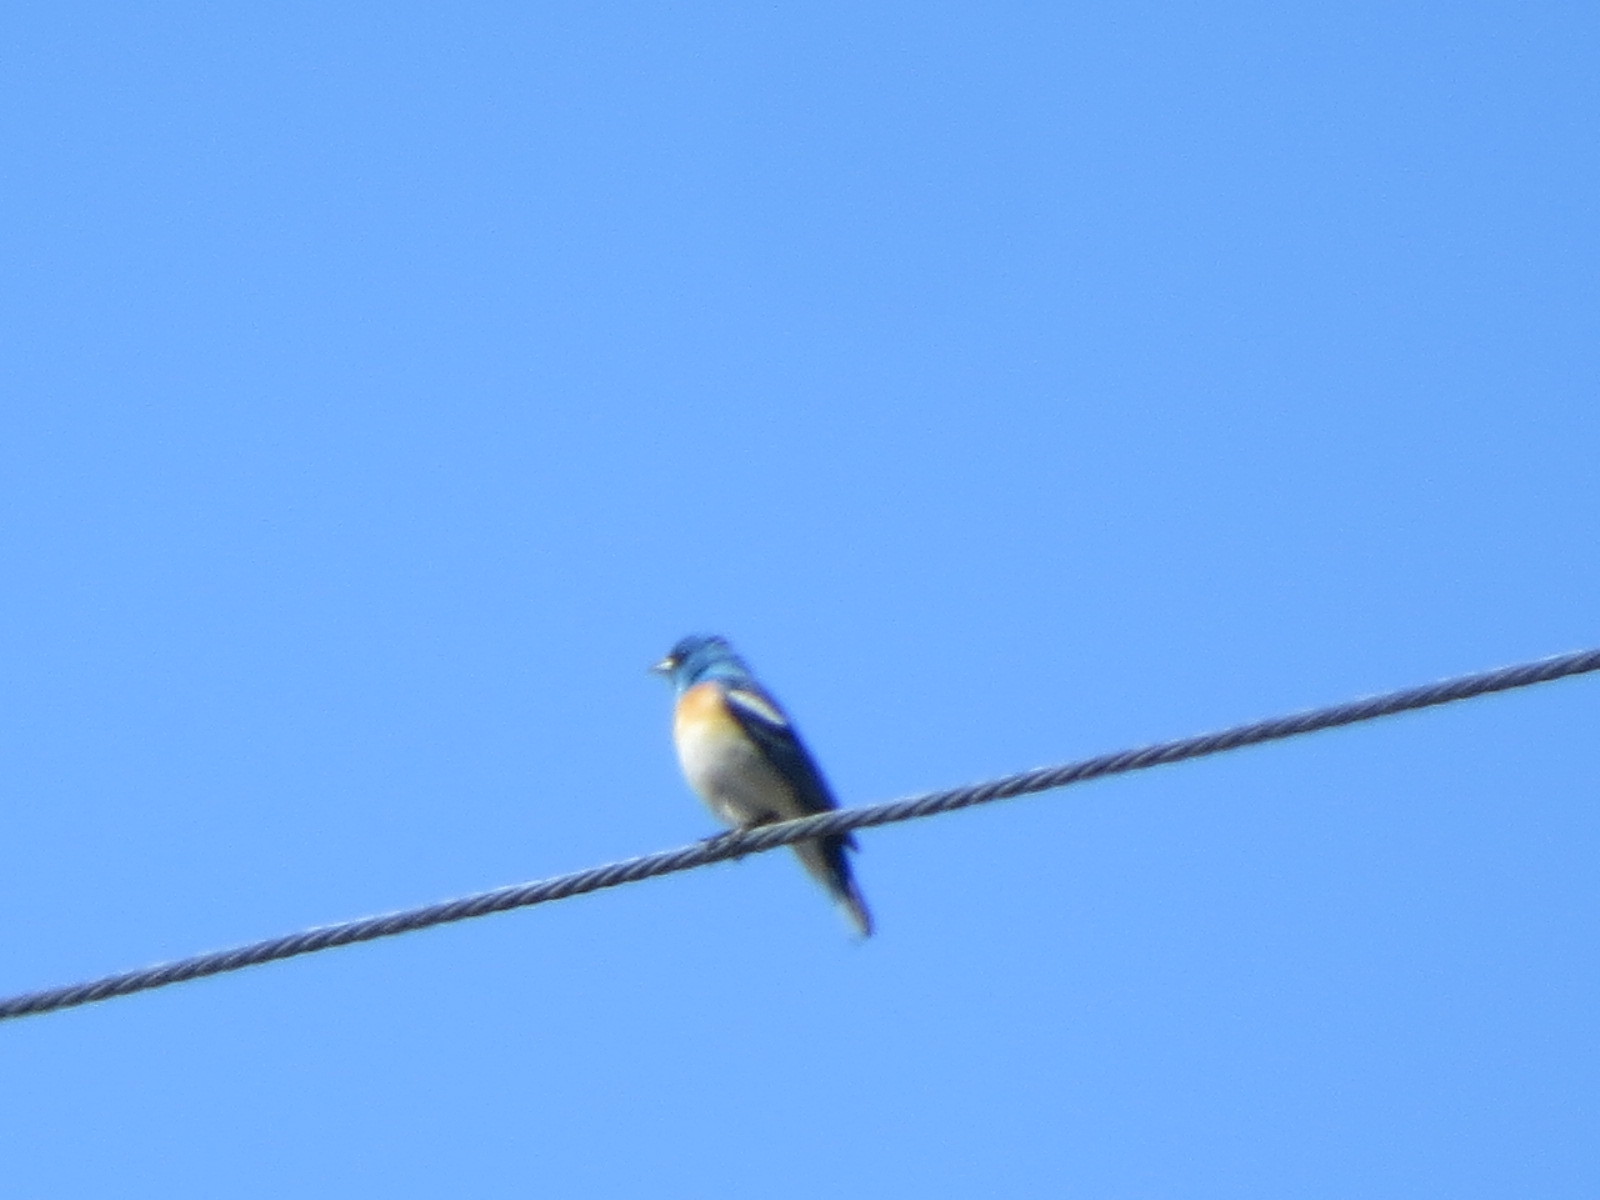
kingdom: Animalia
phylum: Chordata
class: Aves
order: Passeriformes
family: Cardinalidae
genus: Passerina
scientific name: Passerina amoena
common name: Lazuli bunting
